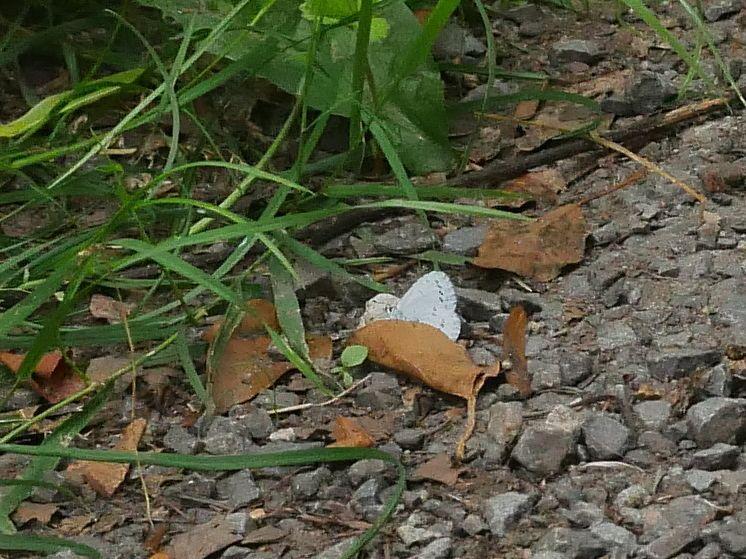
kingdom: Animalia
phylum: Arthropoda
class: Insecta
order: Lepidoptera
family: Lycaenidae
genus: Celastrina
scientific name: Celastrina argiolus
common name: Holly blue
